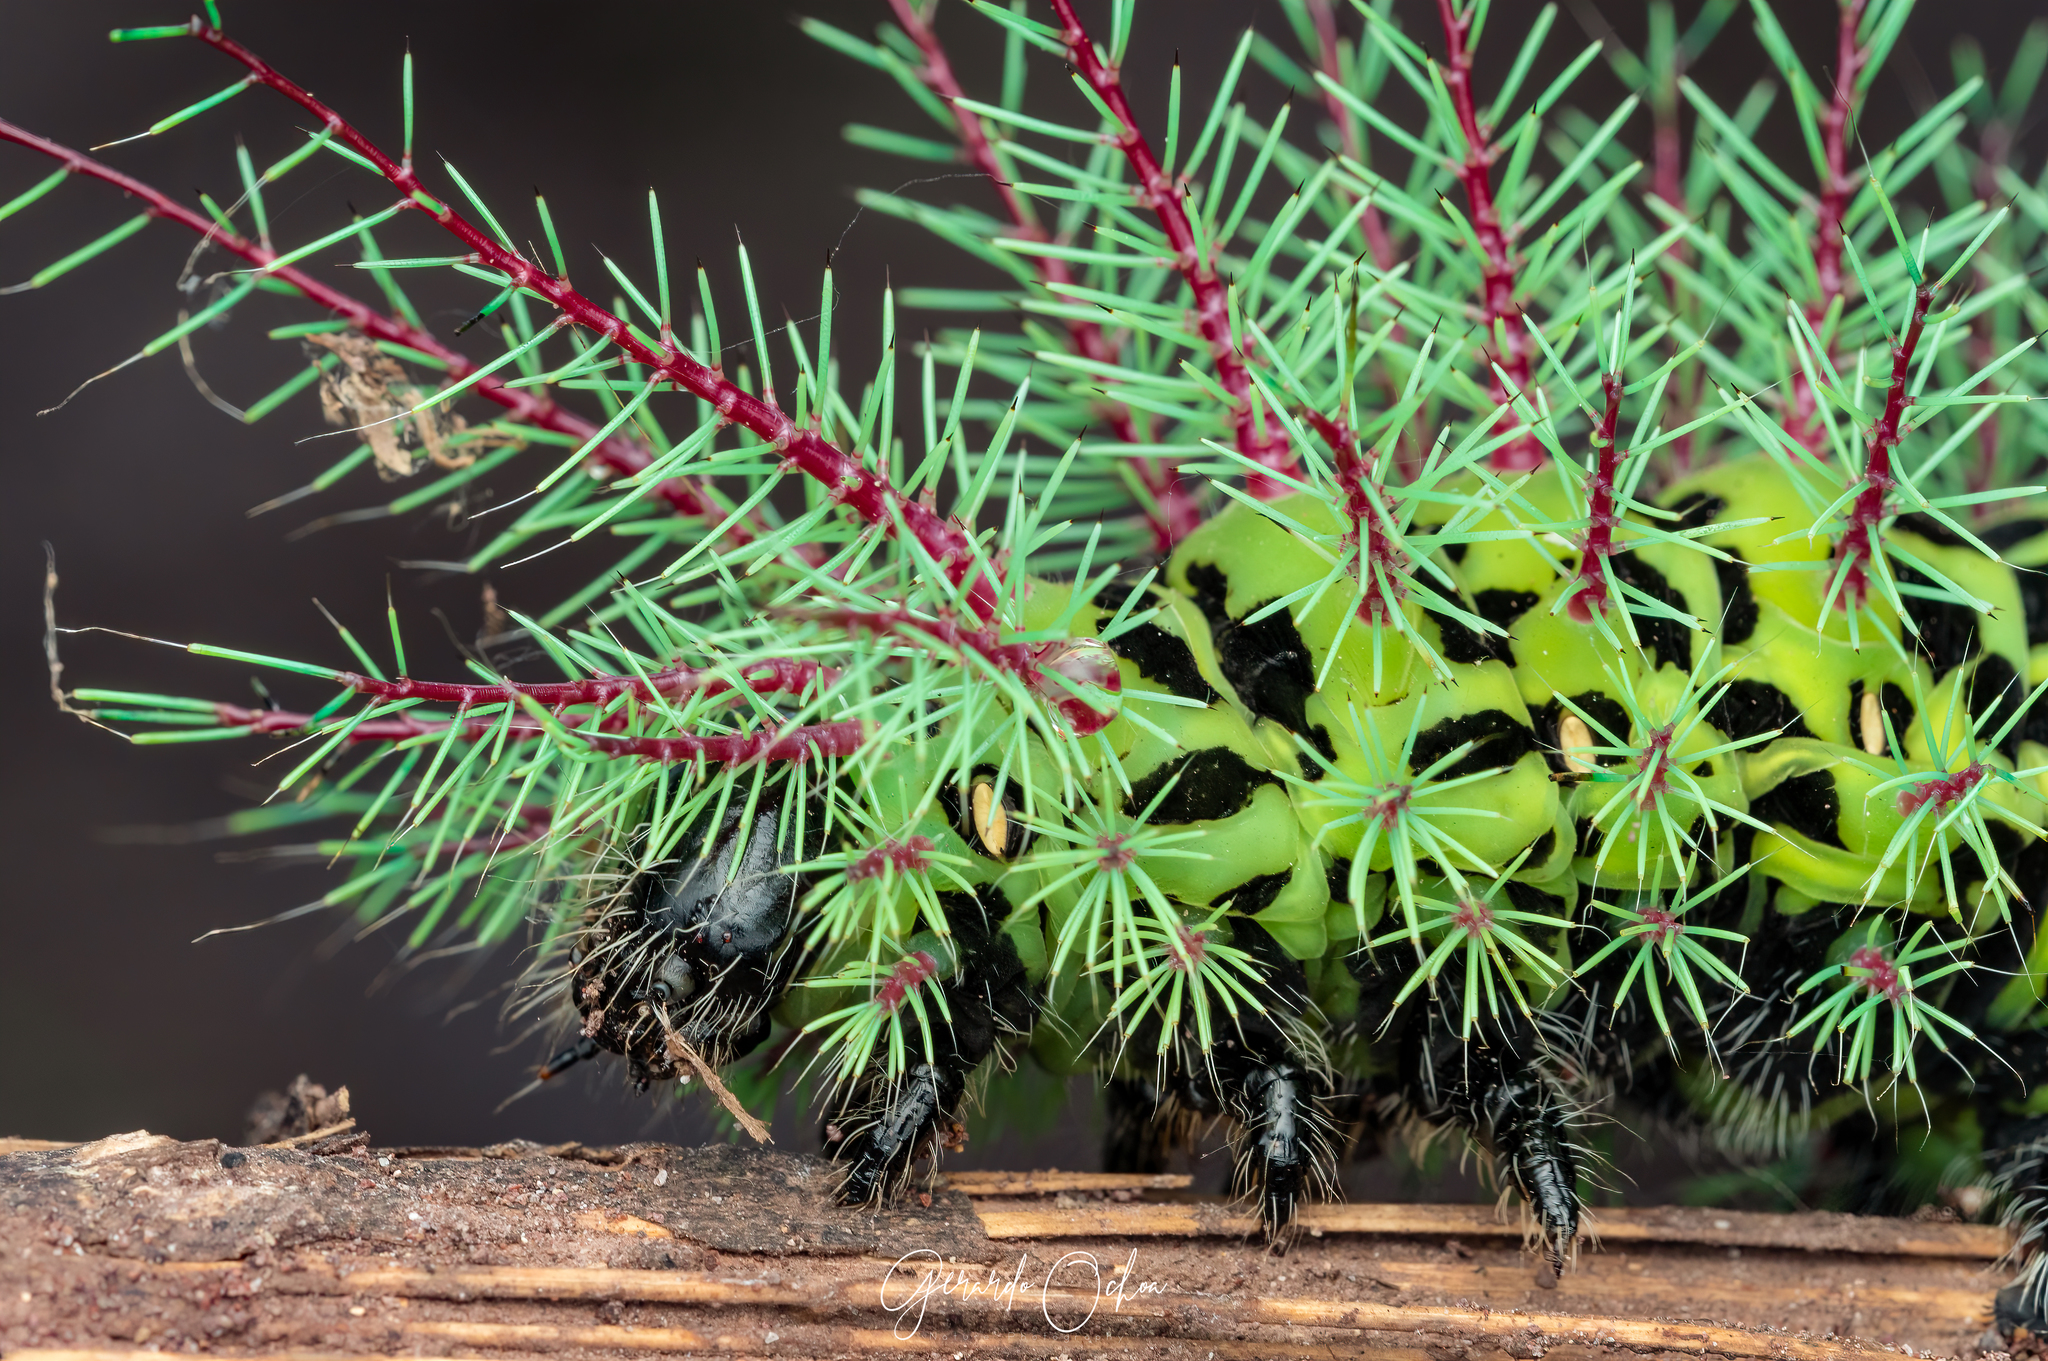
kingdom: Animalia
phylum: Arthropoda
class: Insecta
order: Lepidoptera
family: Saturniidae
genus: Automeris
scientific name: Automeris metzli
